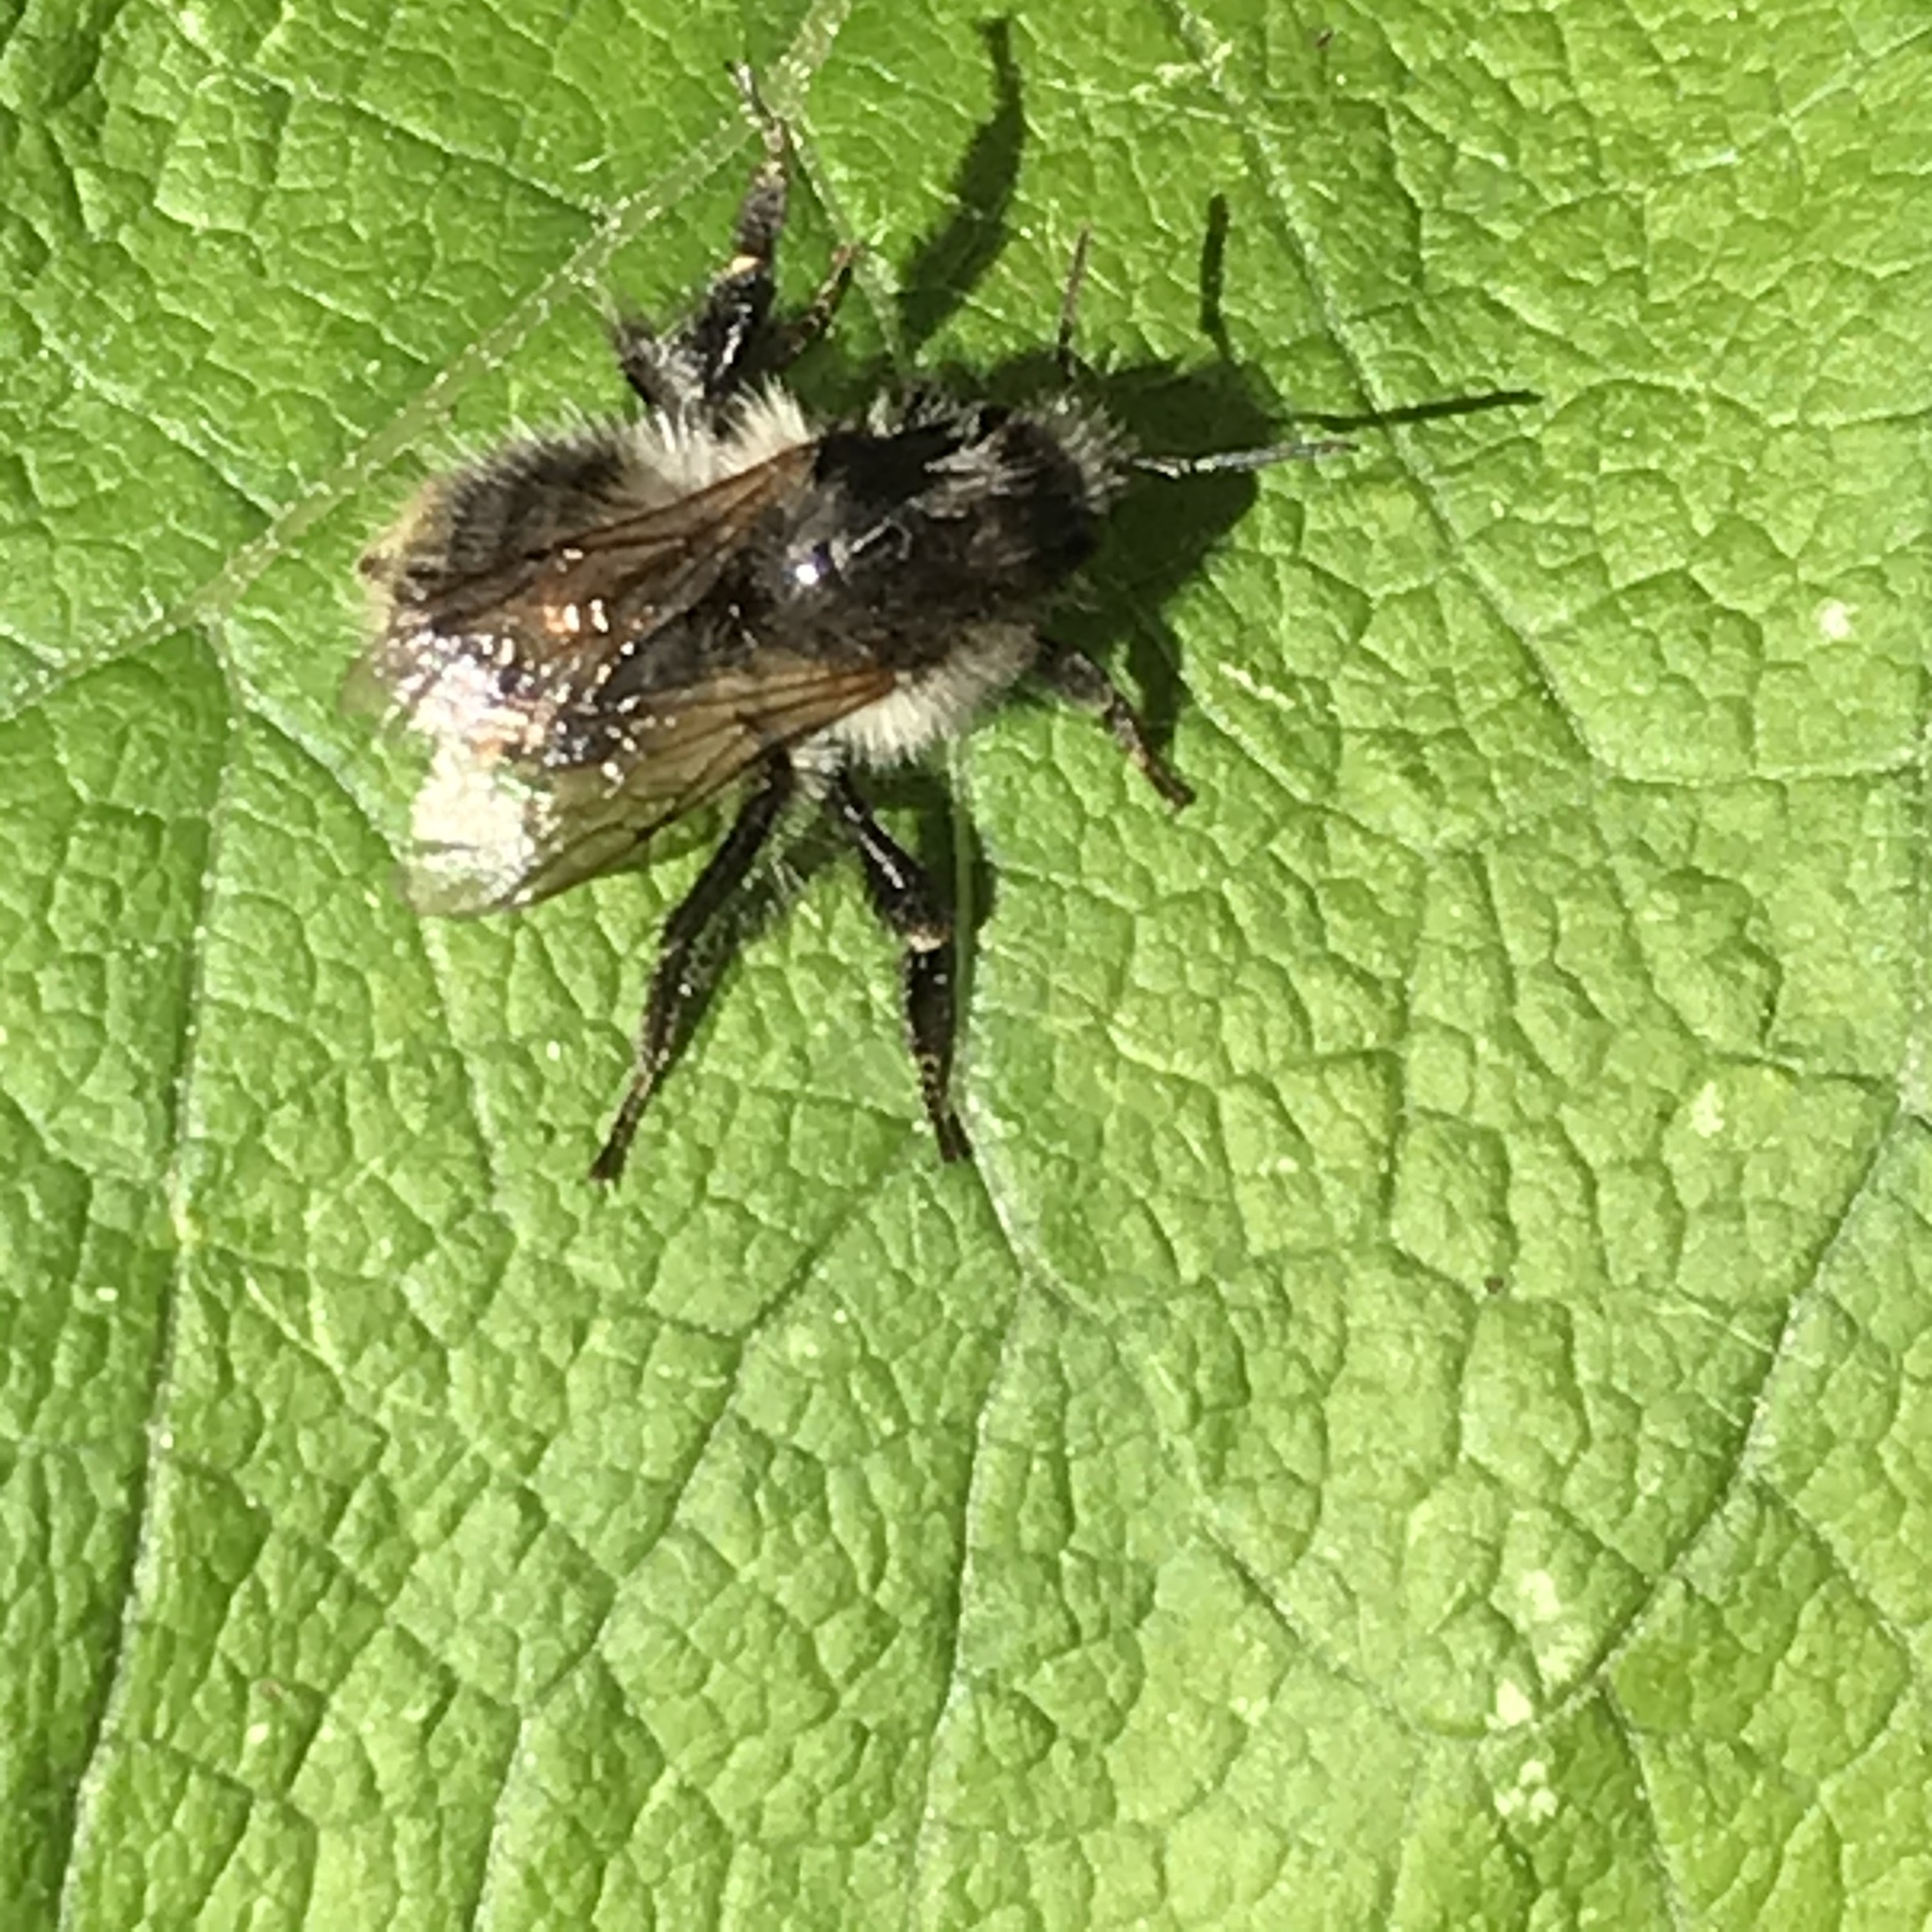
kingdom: Animalia
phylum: Arthropoda
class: Insecta
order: Hymenoptera
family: Apidae
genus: Bombus
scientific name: Bombus pascuorum
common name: Common carder bee
